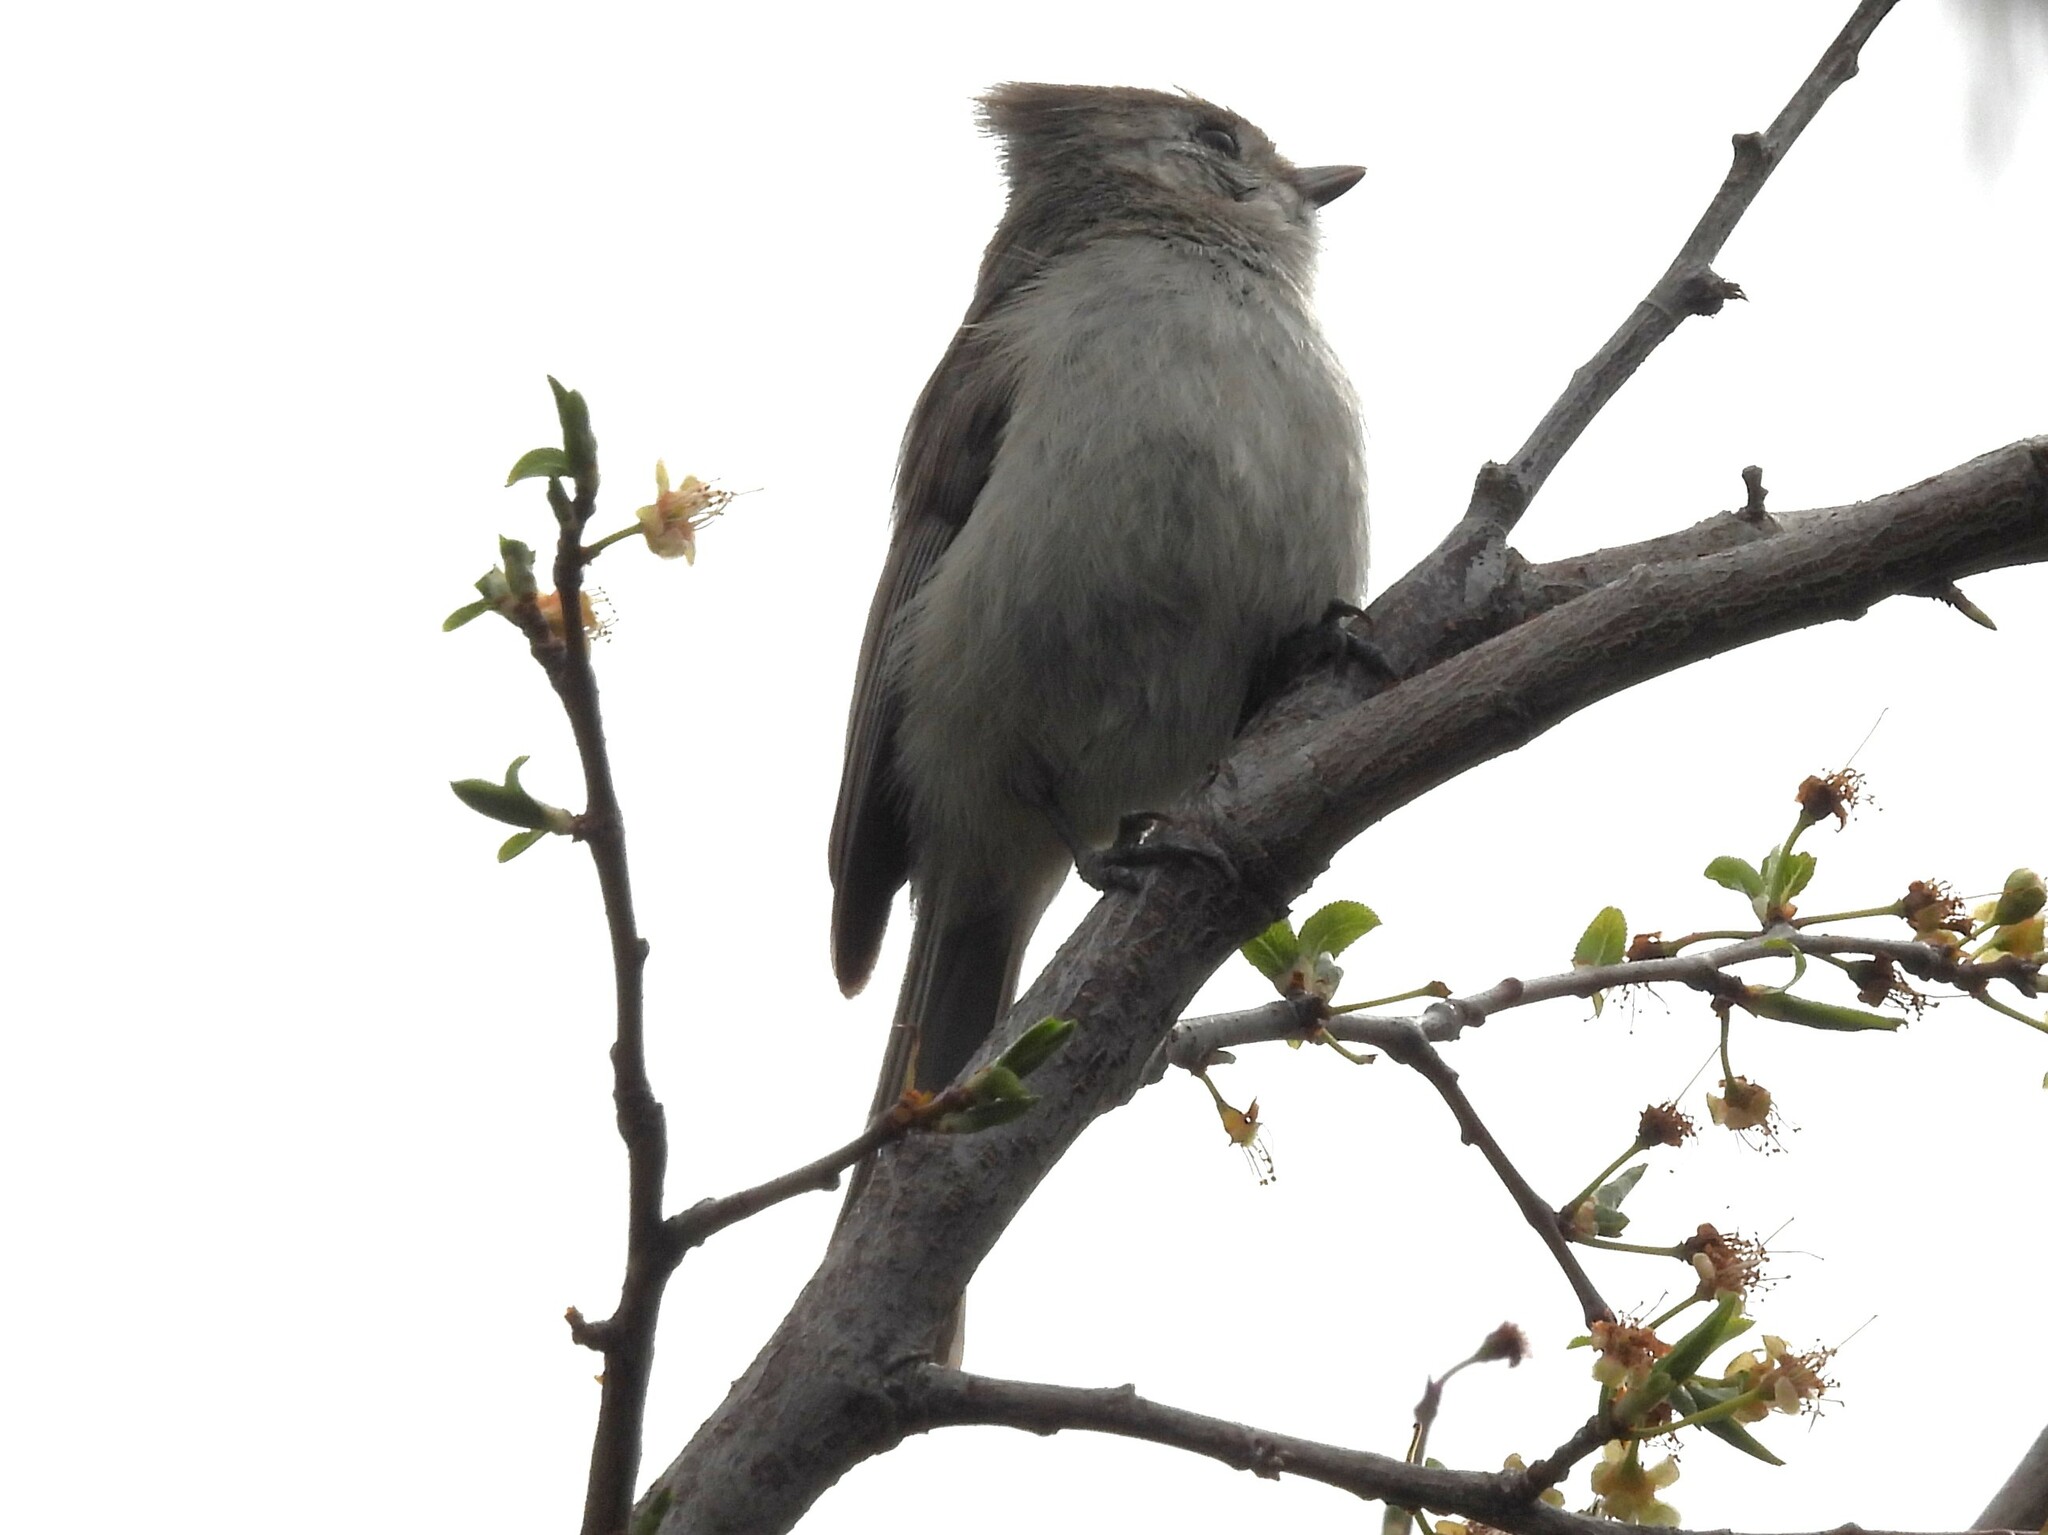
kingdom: Animalia
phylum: Chordata
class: Aves
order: Passeriformes
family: Paridae
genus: Baeolophus
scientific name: Baeolophus inornatus
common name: Oak titmouse
